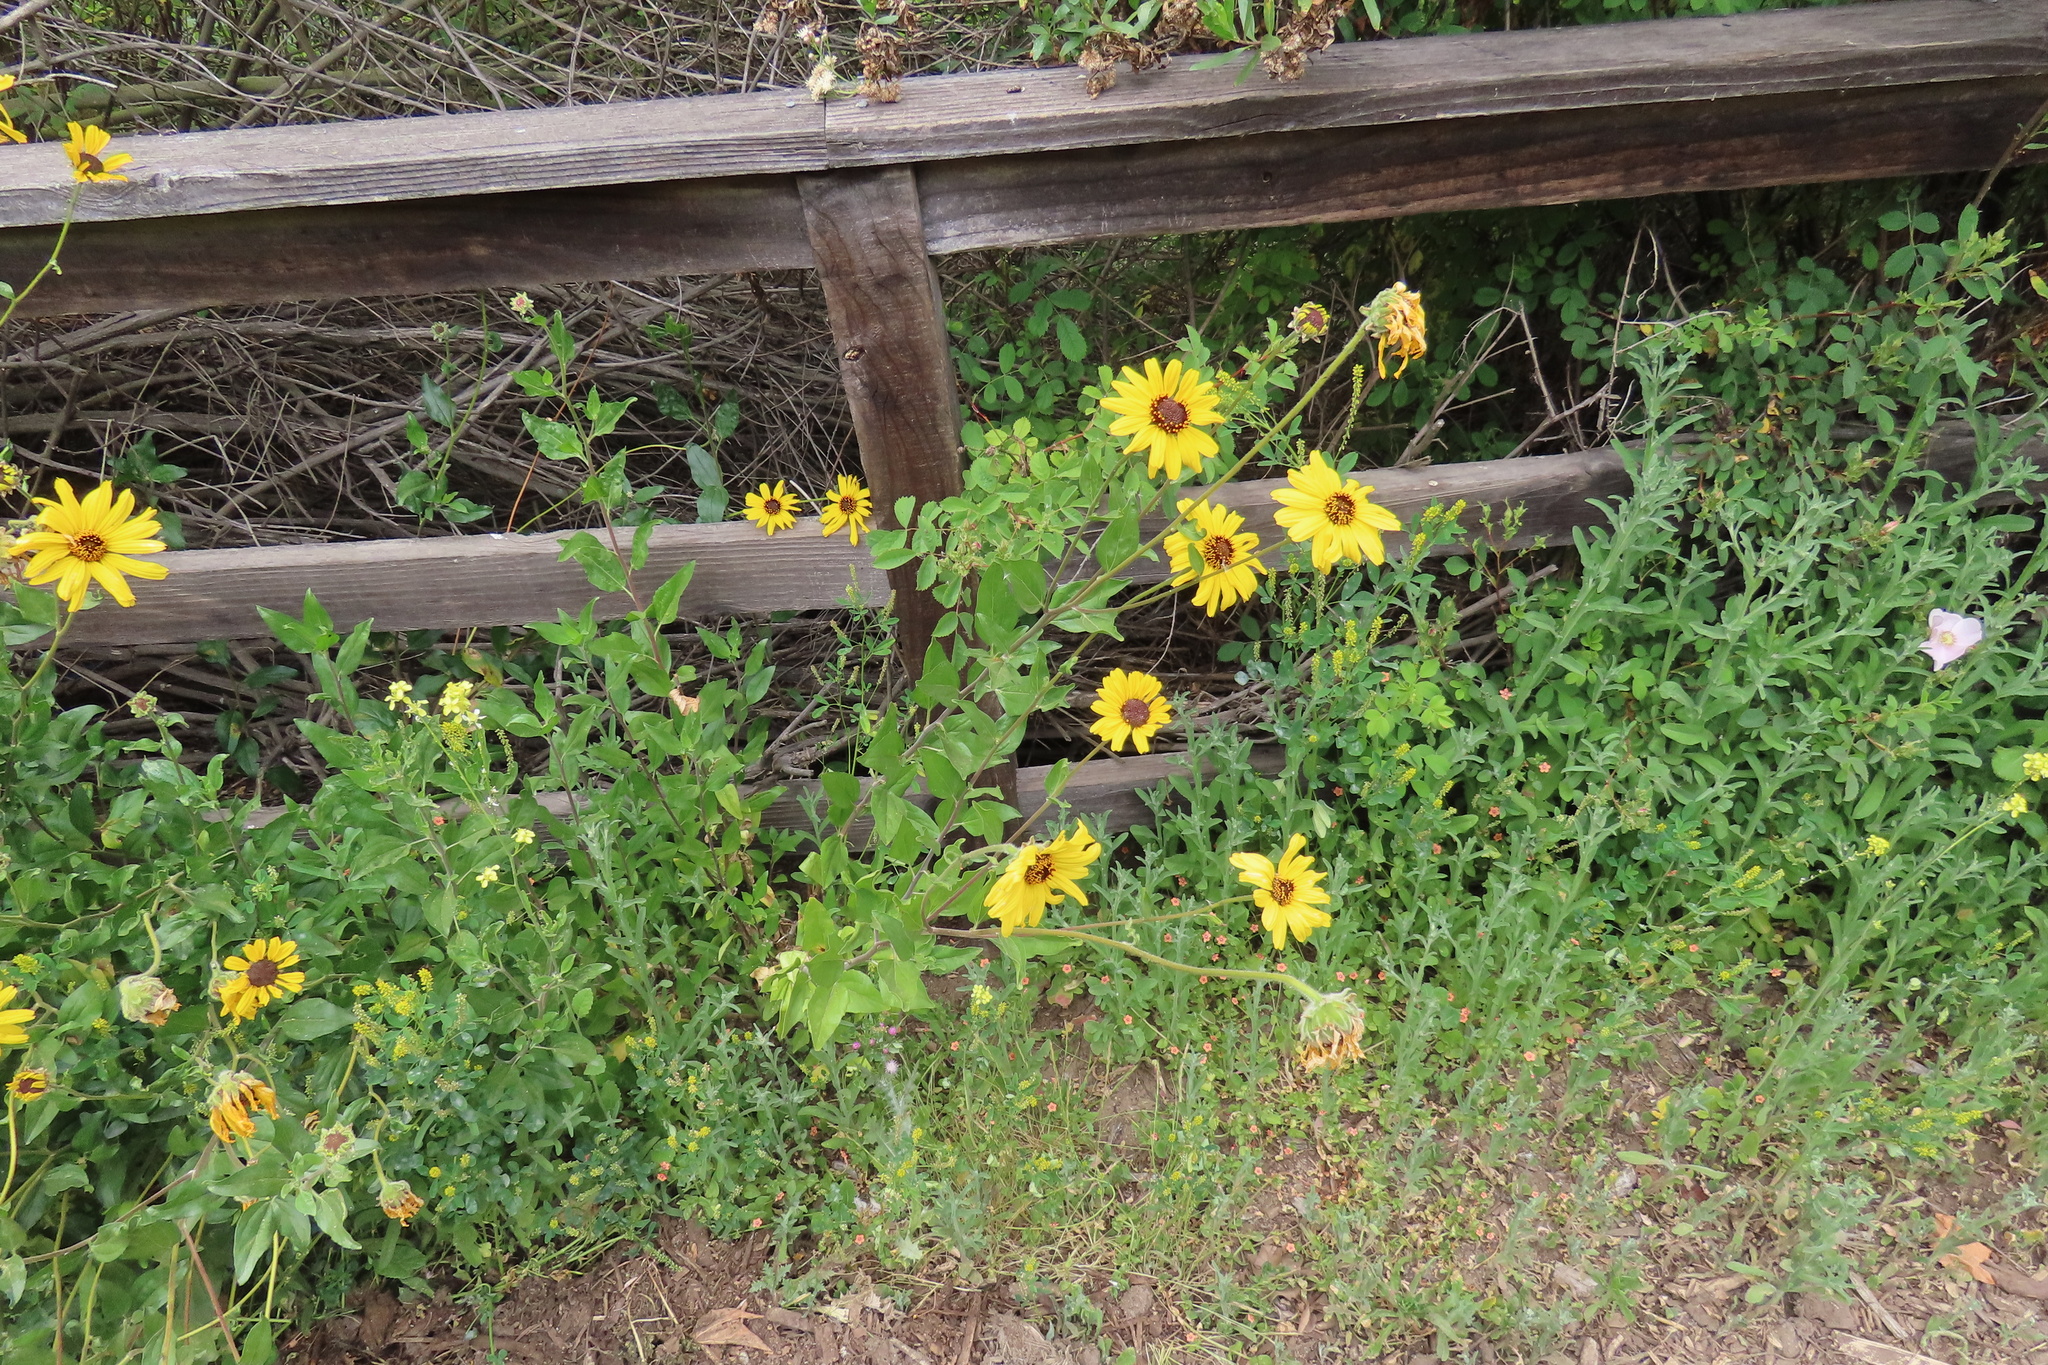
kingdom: Plantae
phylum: Tracheophyta
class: Magnoliopsida
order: Asterales
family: Asteraceae
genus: Encelia
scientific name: Encelia californica
